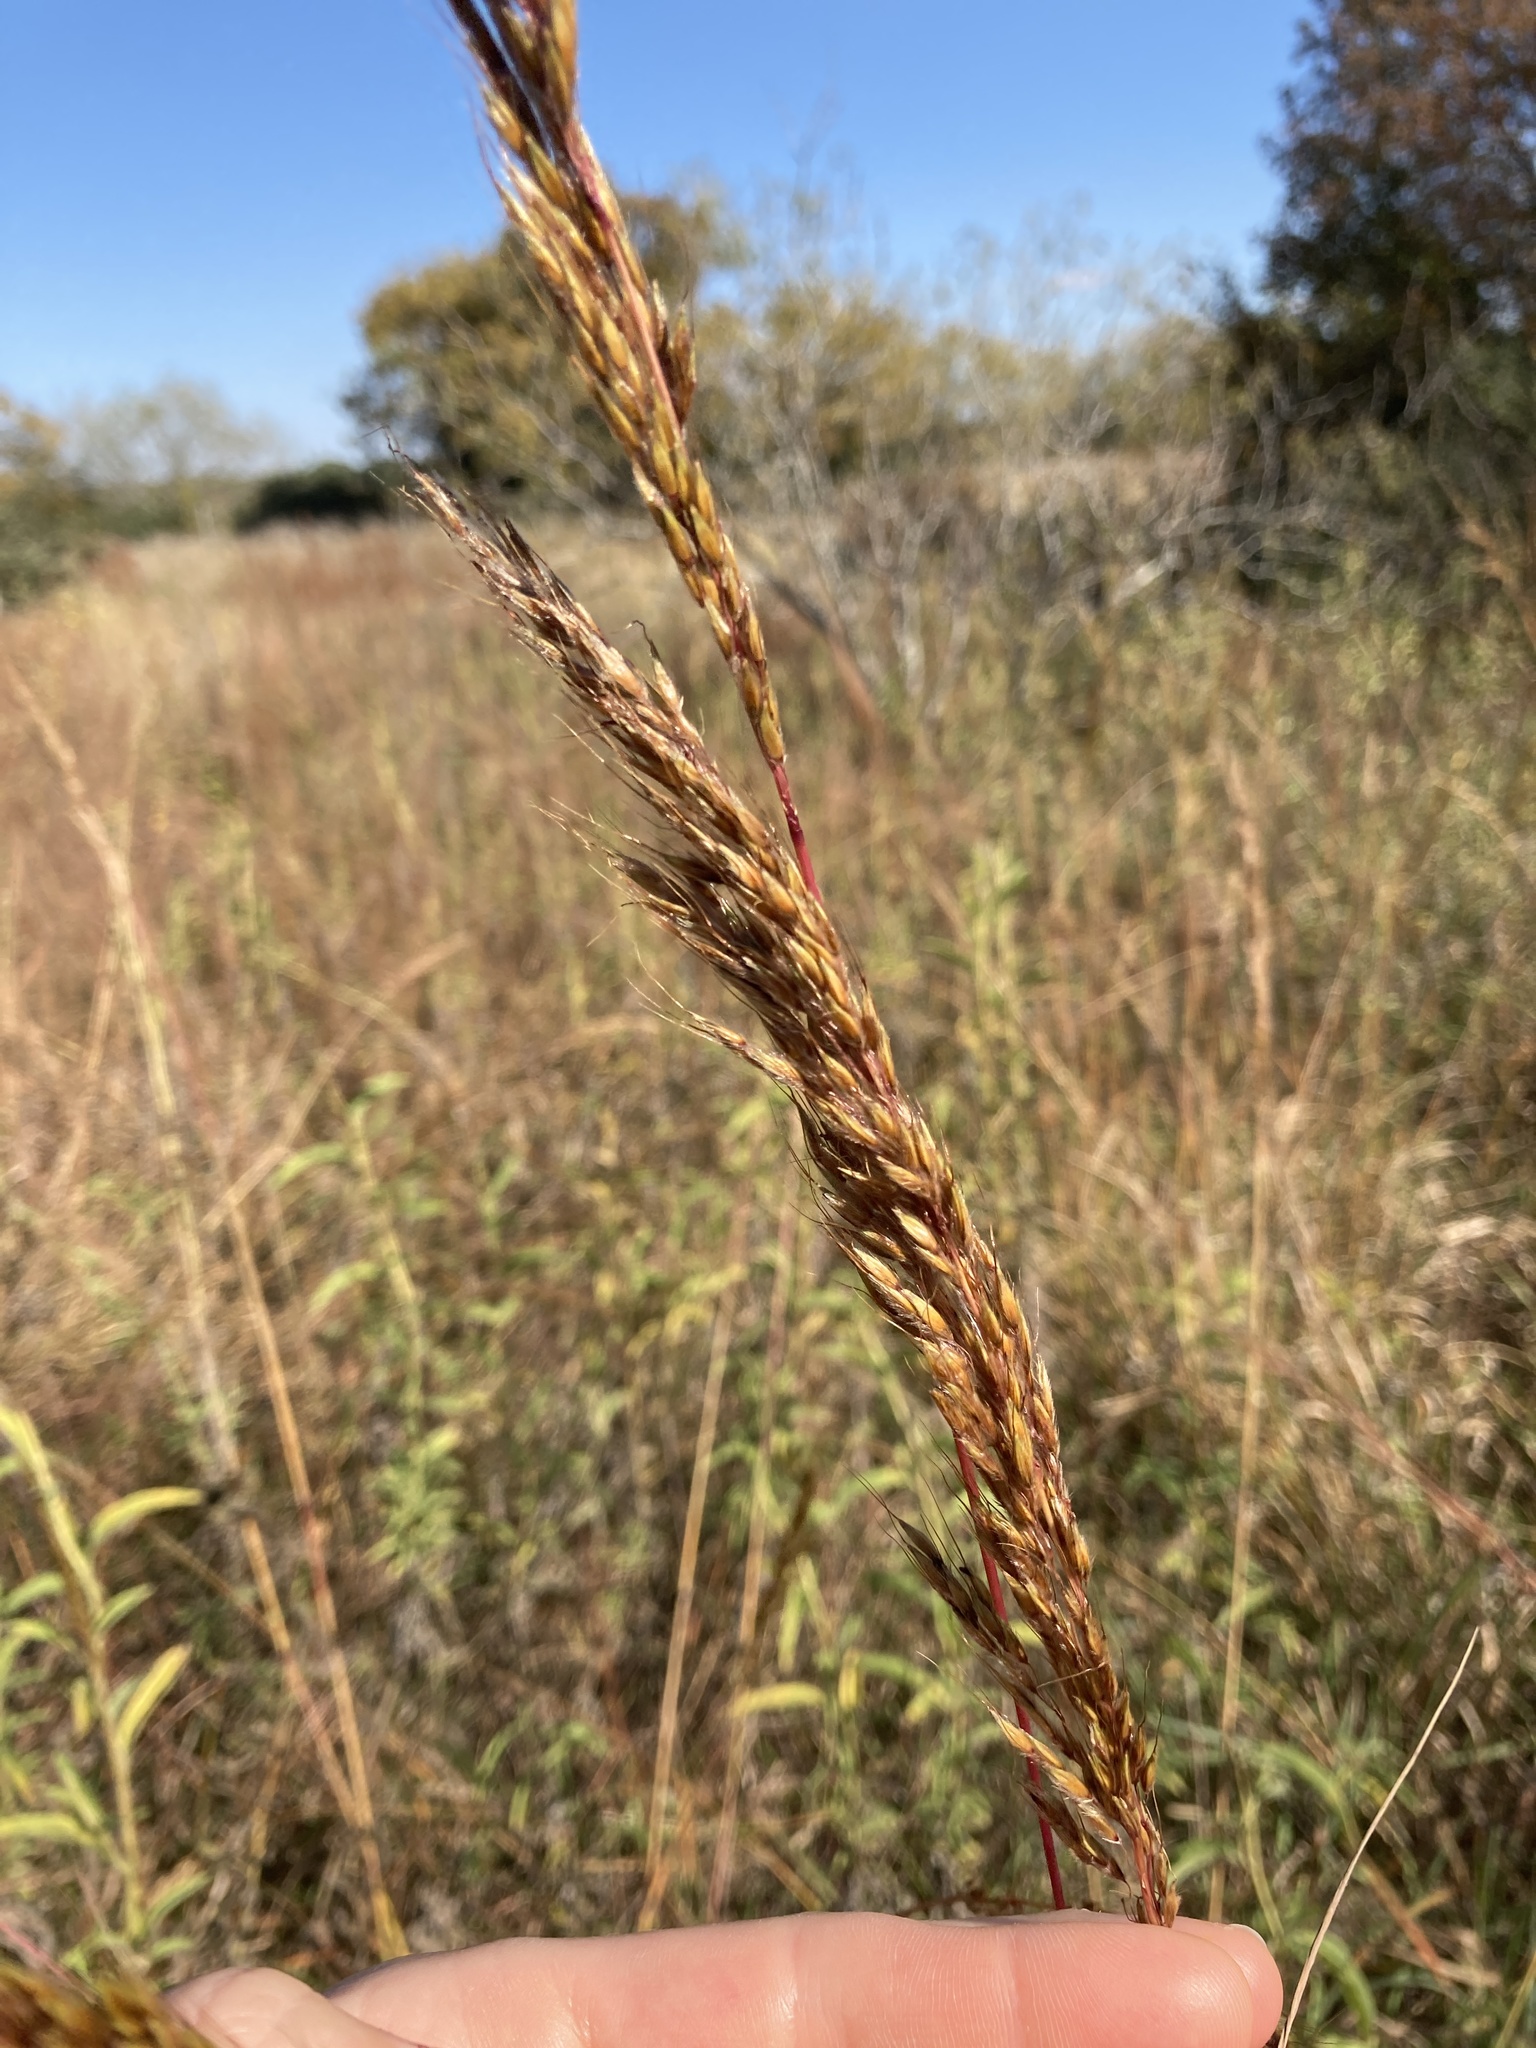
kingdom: Plantae
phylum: Tracheophyta
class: Liliopsida
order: Poales
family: Poaceae
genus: Sorghastrum
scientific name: Sorghastrum nutans
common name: Indian grass
